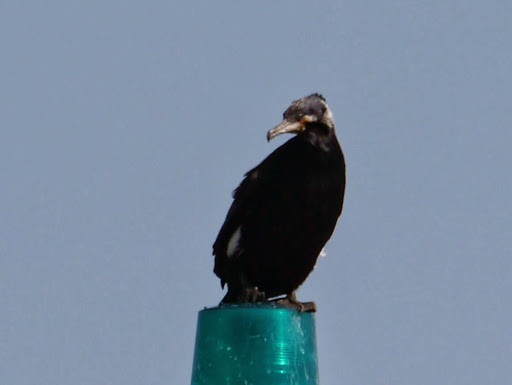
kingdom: Animalia
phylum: Chordata
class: Aves
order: Suliformes
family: Phalacrocoracidae
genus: Phalacrocorax
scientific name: Phalacrocorax carbo
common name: Great cormorant
